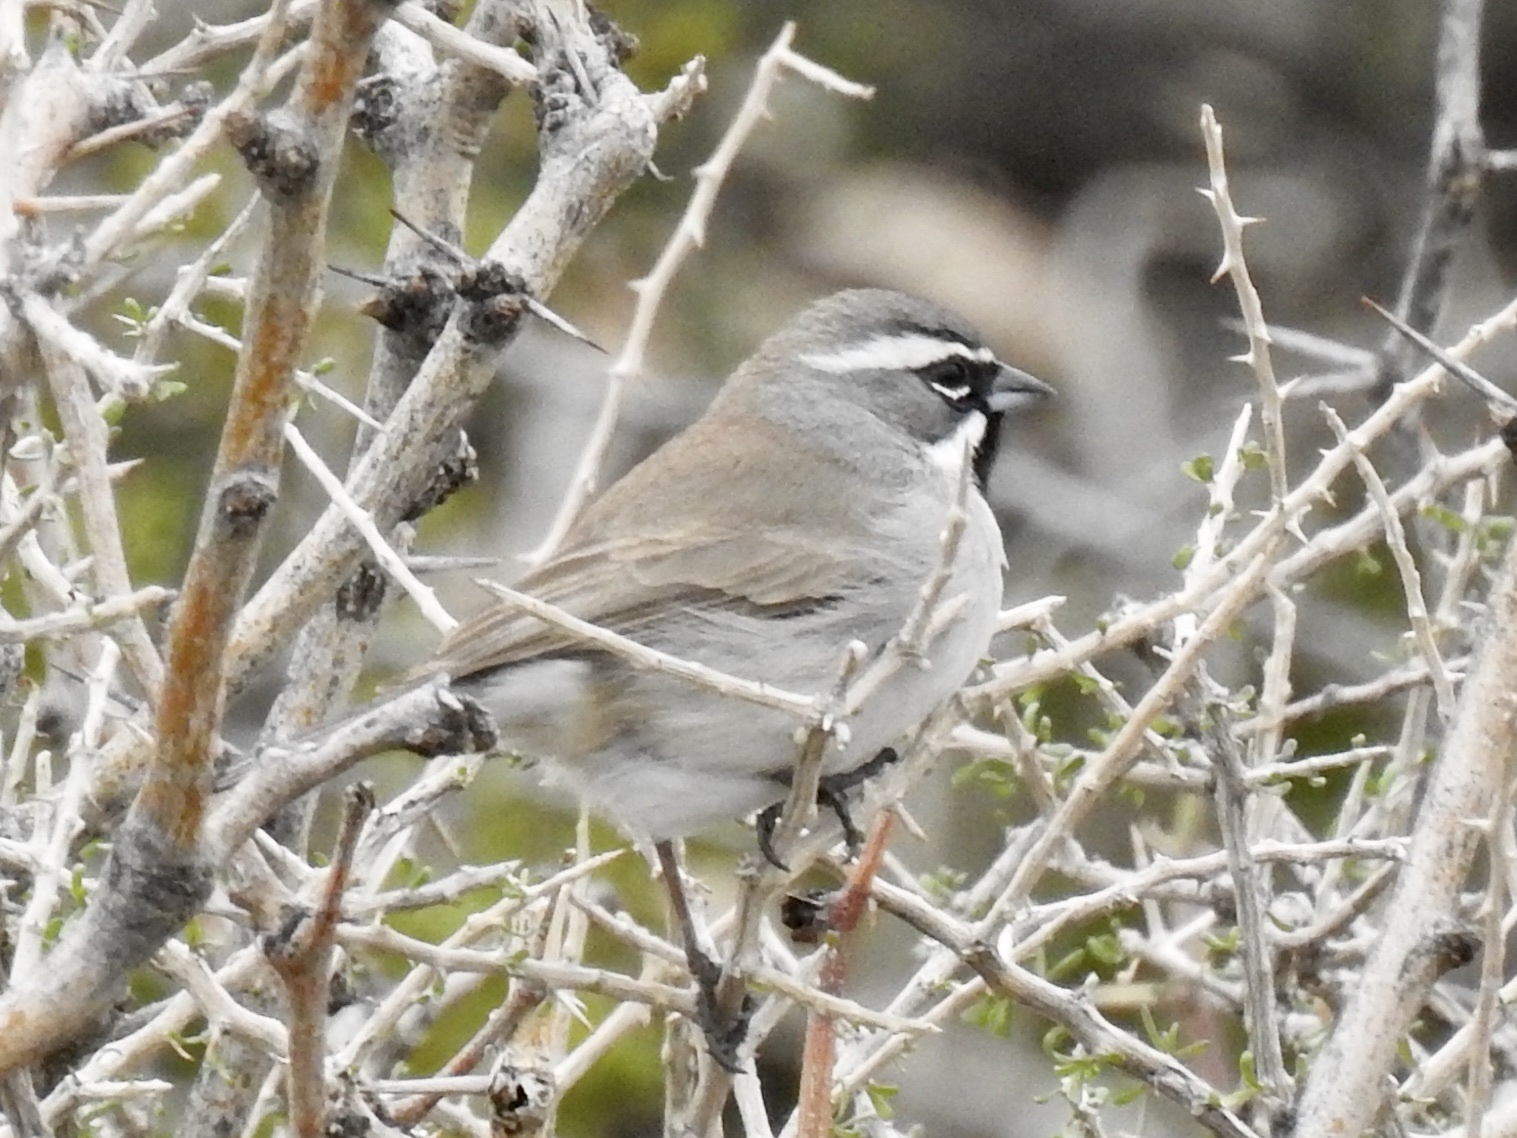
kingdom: Animalia
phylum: Chordata
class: Aves
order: Passeriformes
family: Passerellidae
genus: Amphispiza
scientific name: Amphispiza bilineata
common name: Black-throated sparrow
